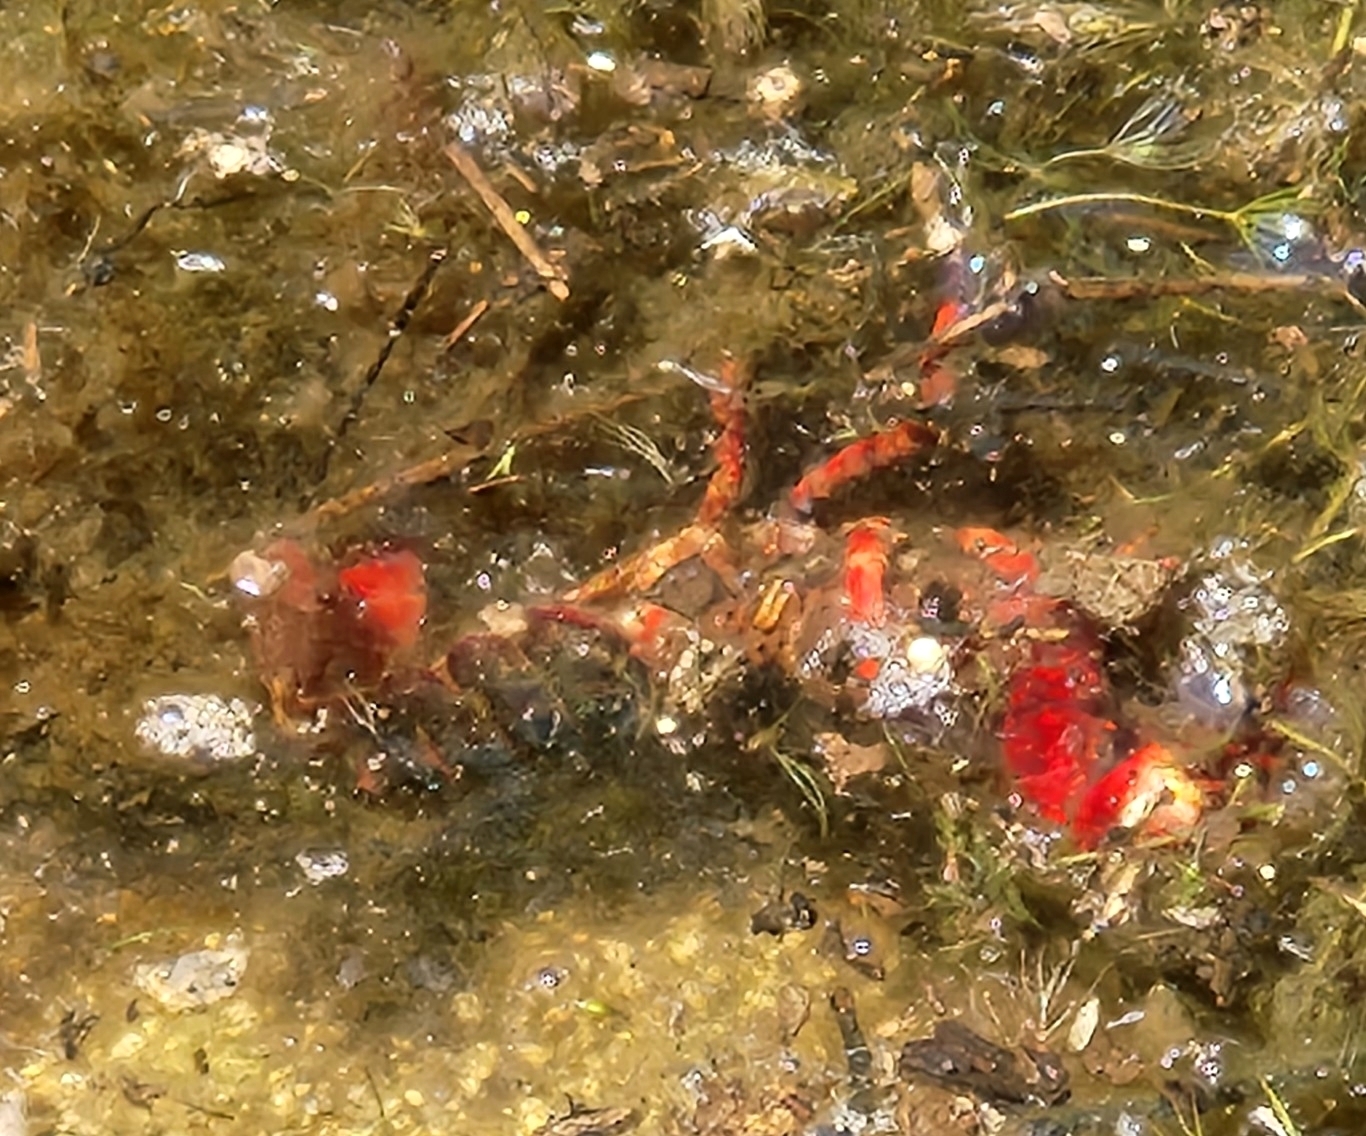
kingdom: Animalia
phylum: Arthropoda
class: Malacostraca
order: Decapoda
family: Cambaridae
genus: Procambarus
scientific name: Procambarus clarkii
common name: Red swamp crayfish
